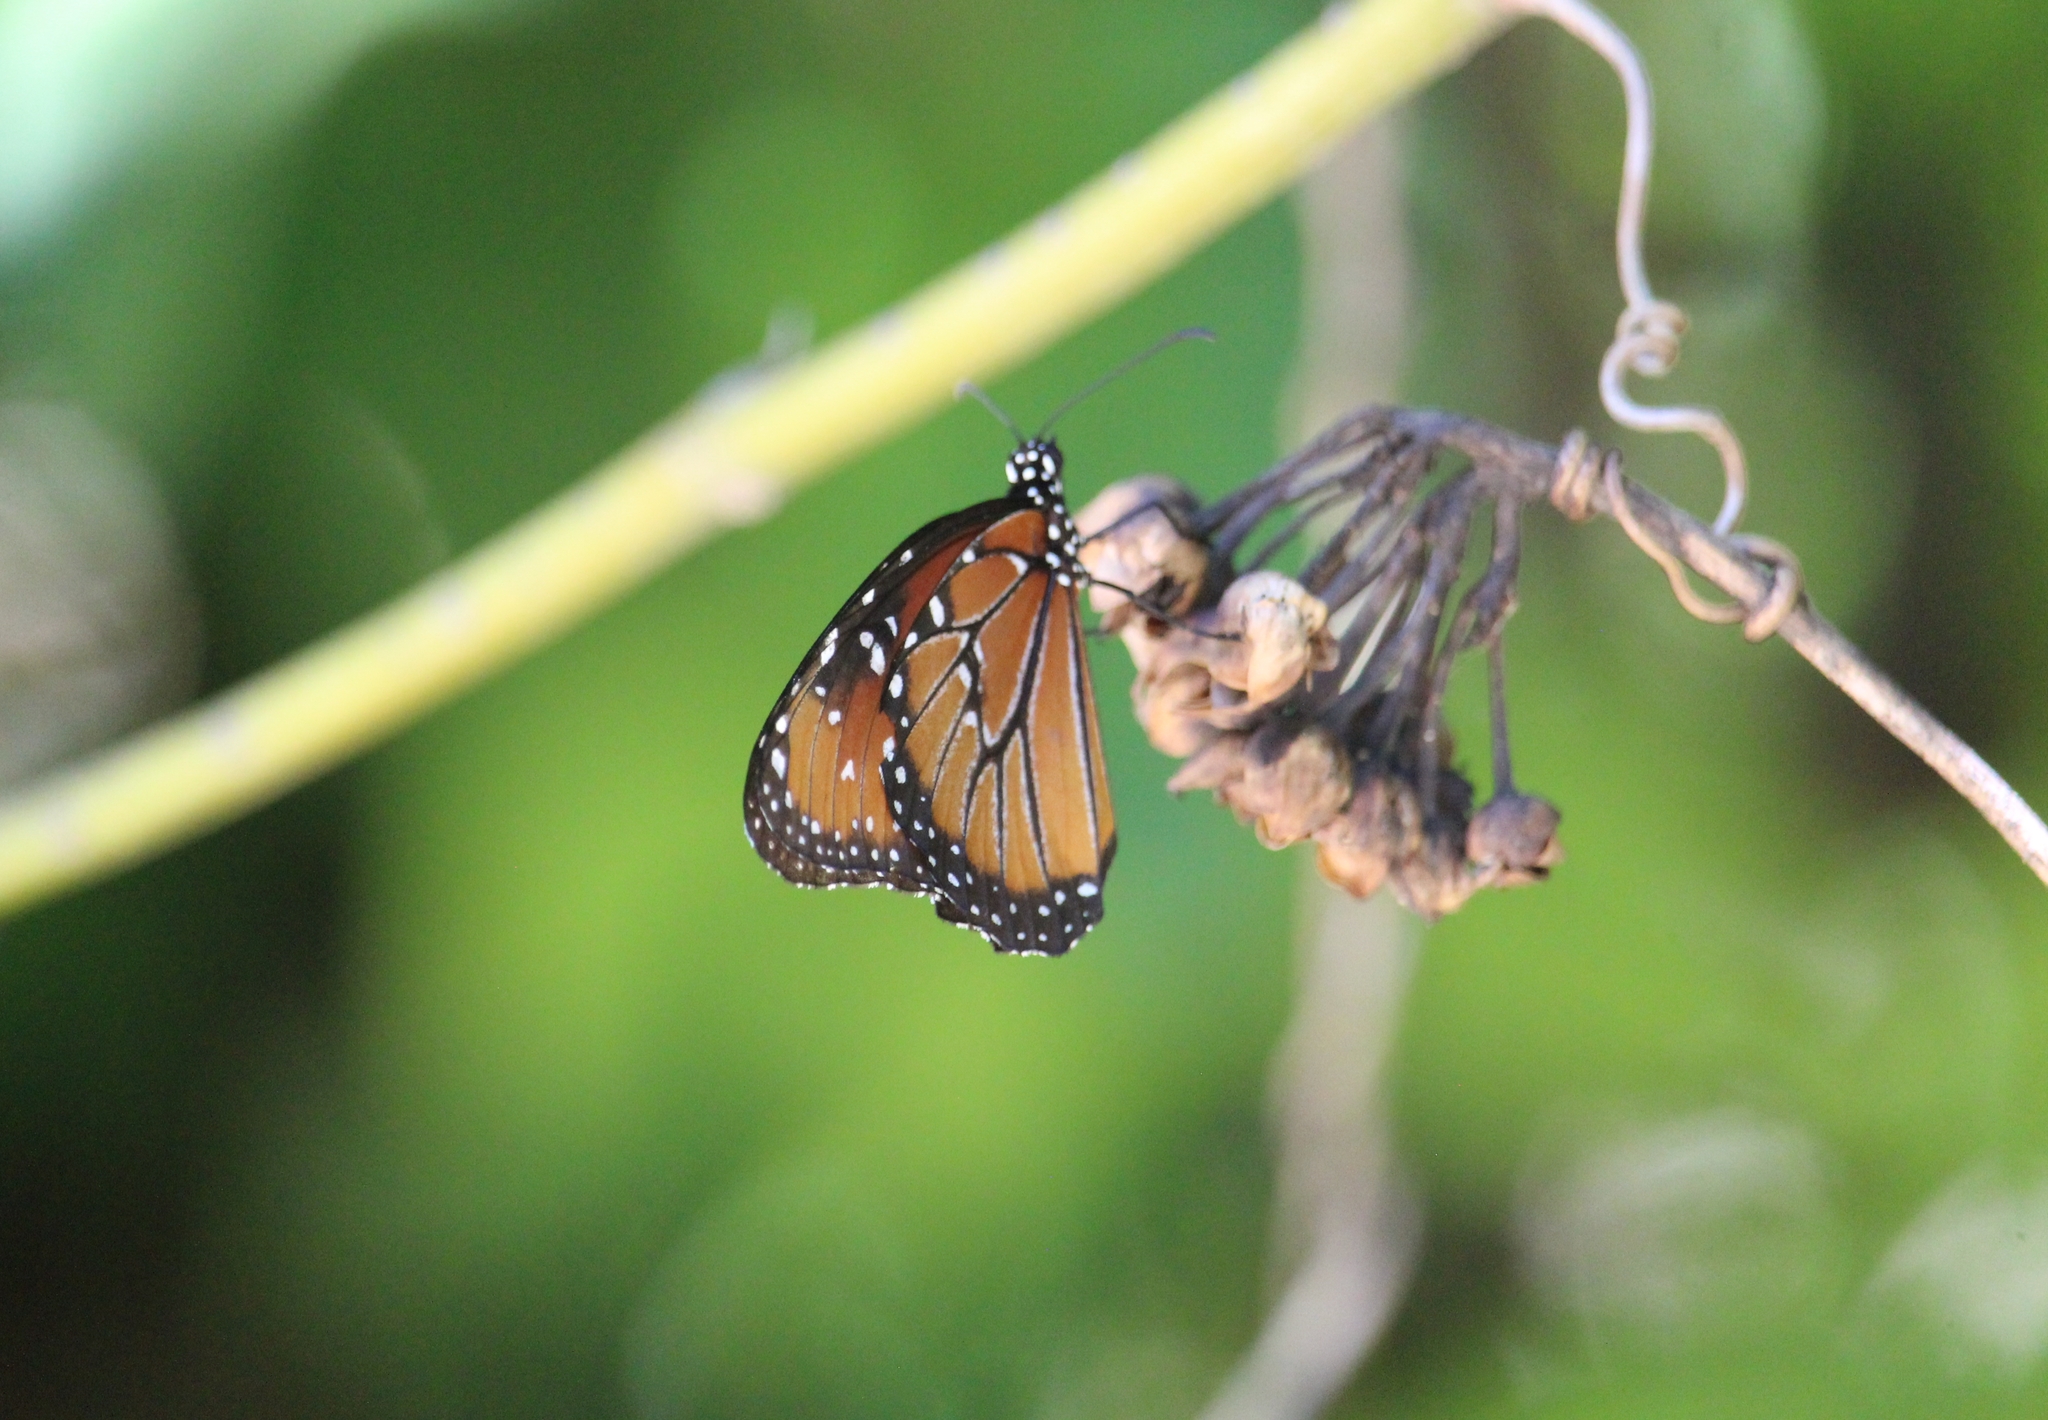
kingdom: Animalia
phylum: Arthropoda
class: Insecta
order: Lepidoptera
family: Nymphalidae
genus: Danaus
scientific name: Danaus gilippus
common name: Queen
